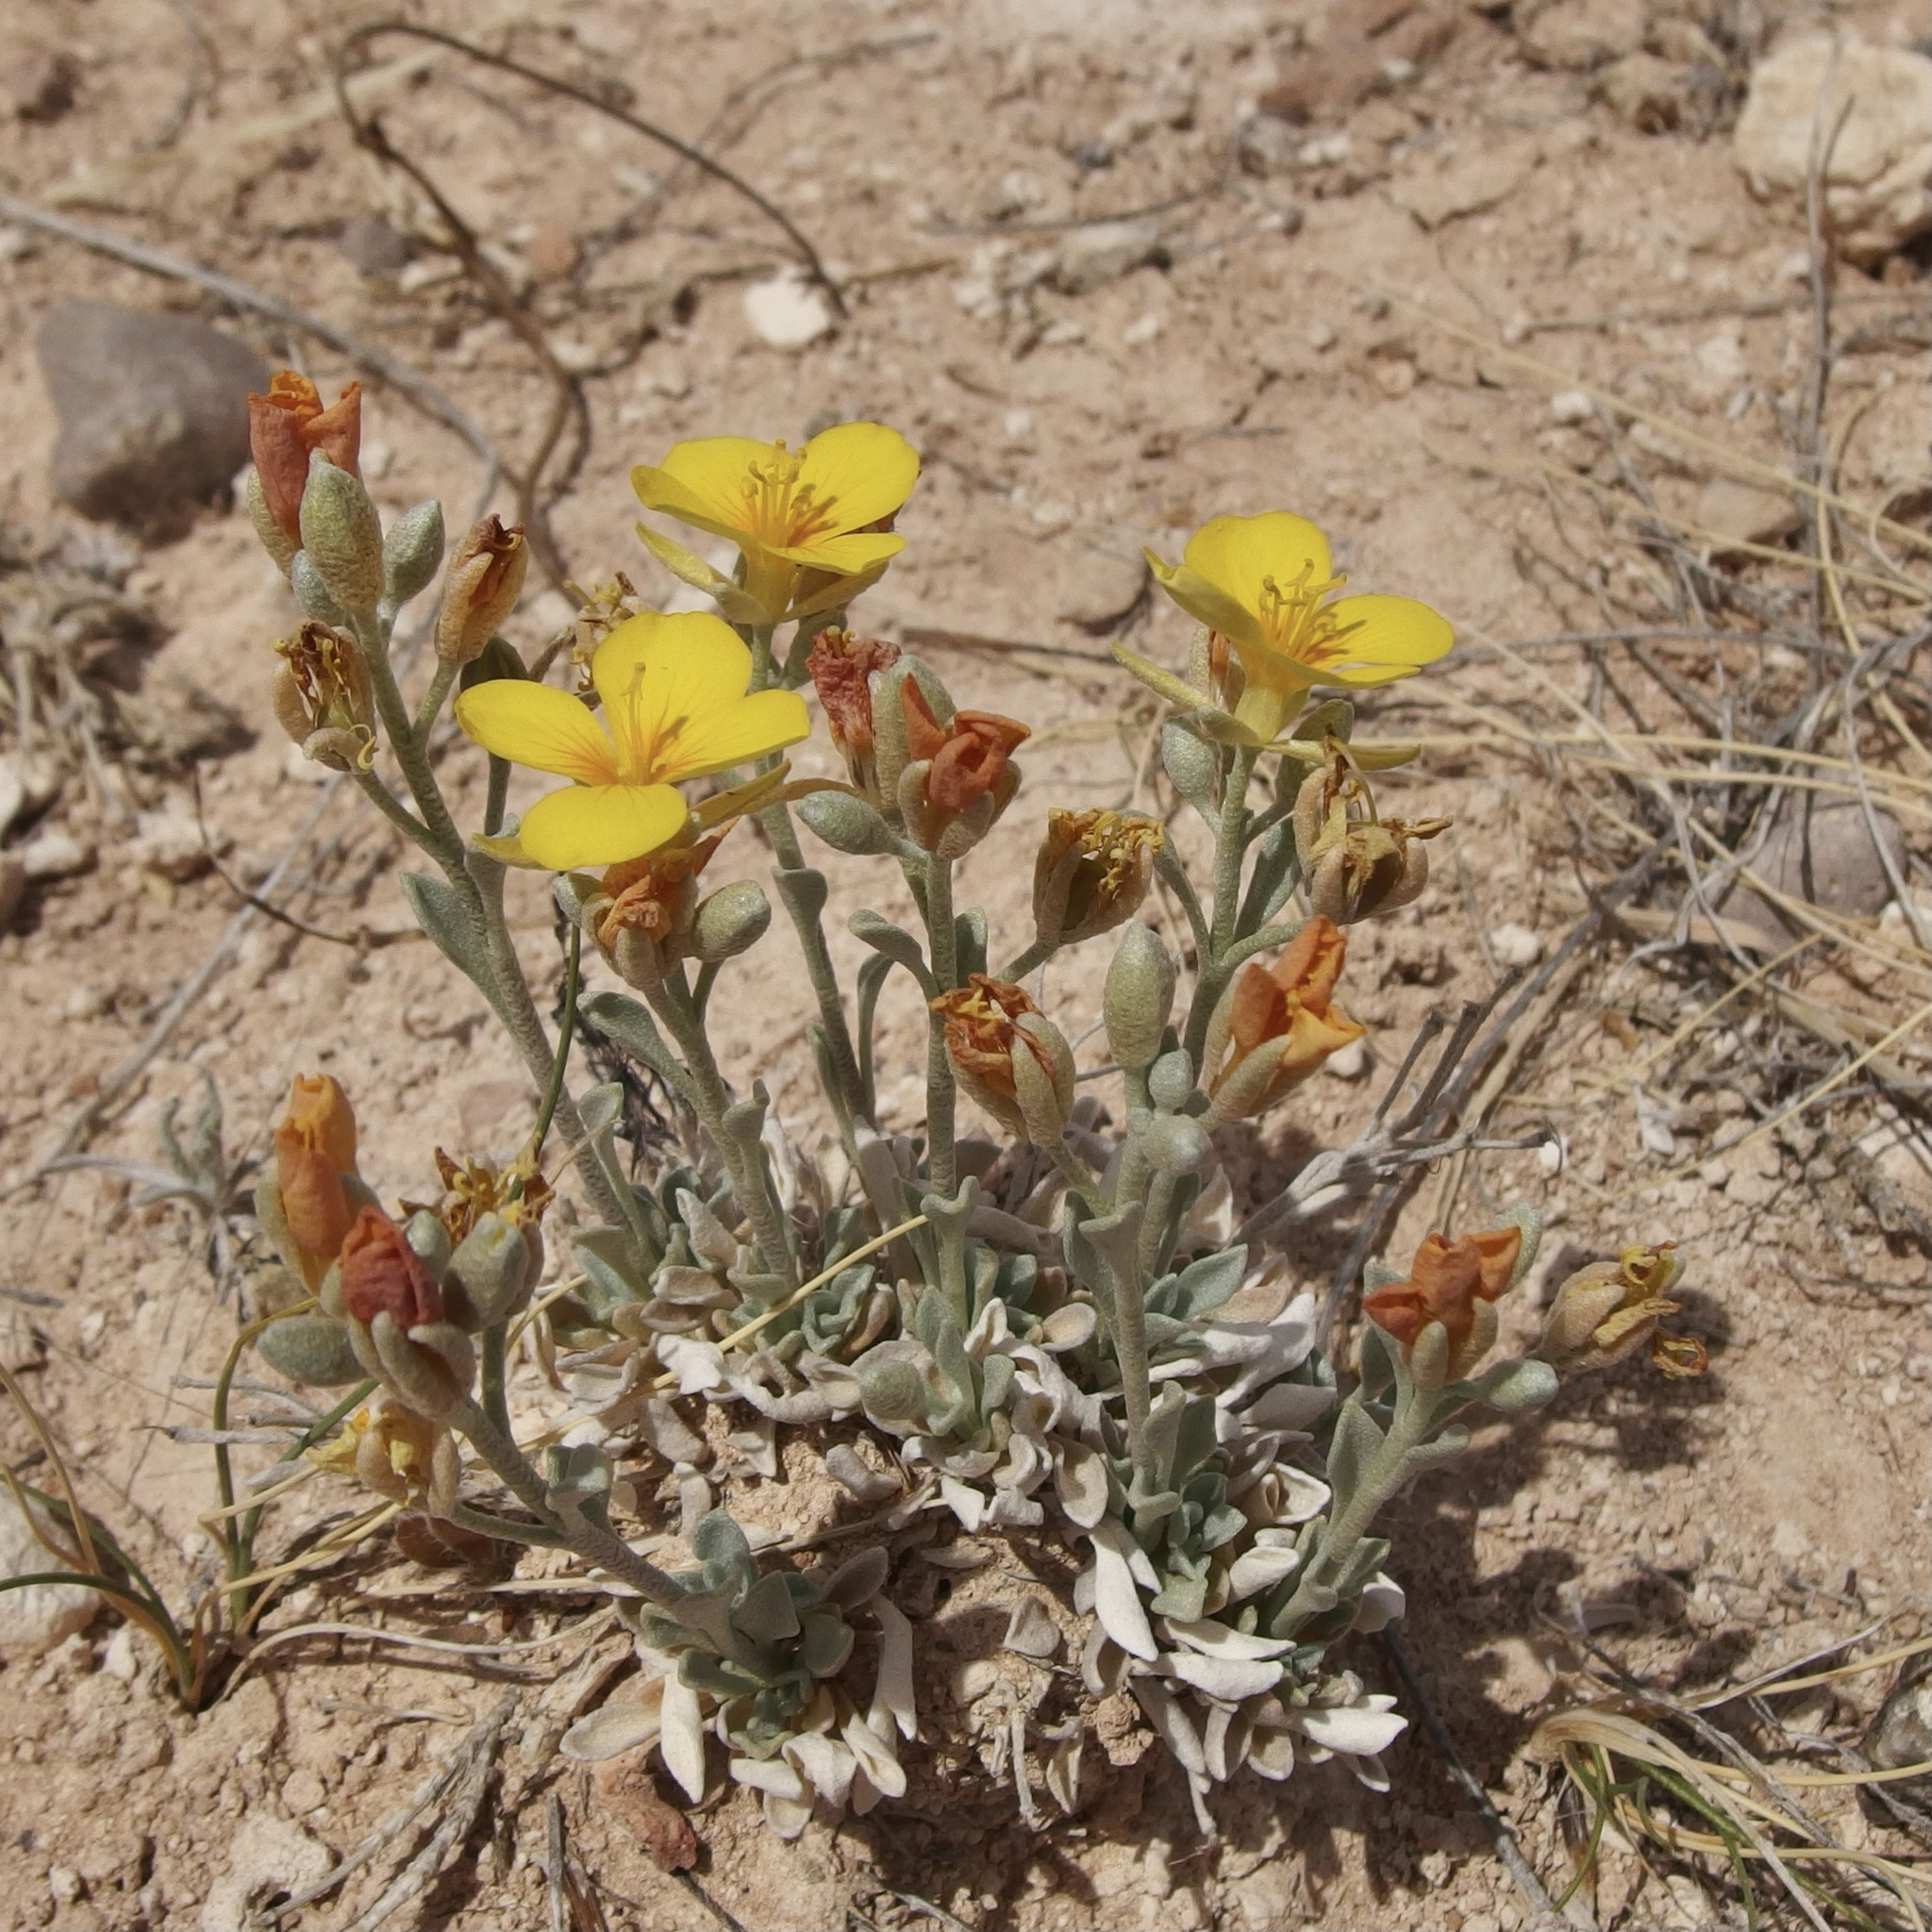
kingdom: Plantae
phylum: Tracheophyta
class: Magnoliopsida
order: Brassicales
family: Brassicaceae
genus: Physaria
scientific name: Physaria fendleri
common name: Fendler's bladderpod
